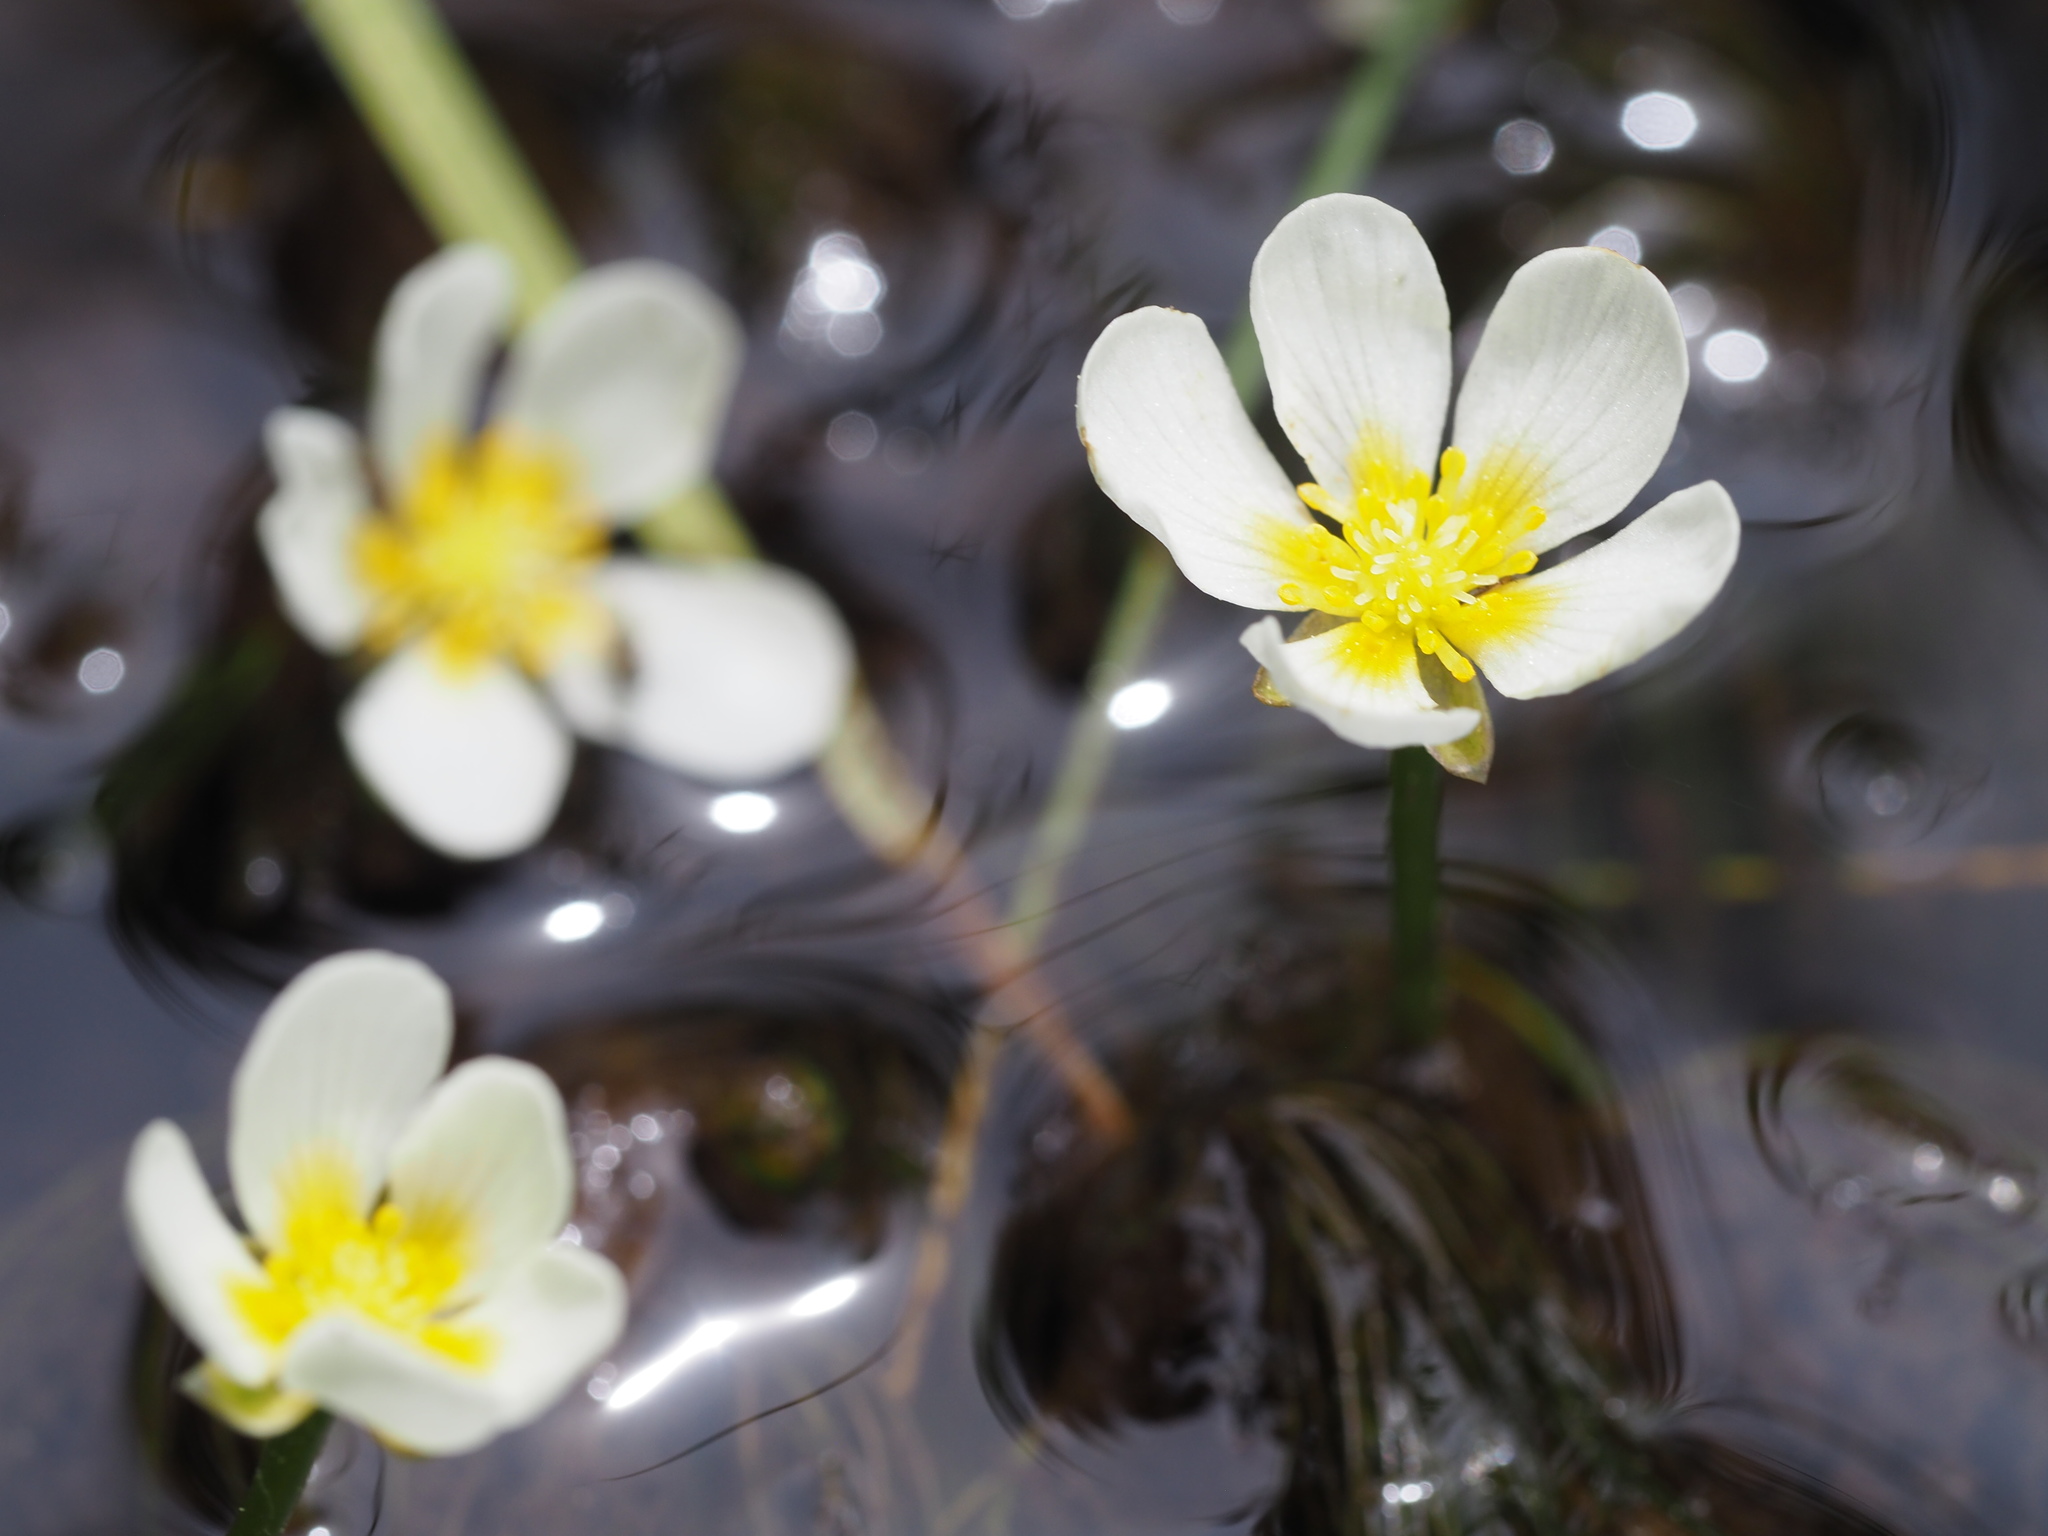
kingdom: Plantae
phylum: Tracheophyta
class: Magnoliopsida
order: Ranunculales
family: Ranunculaceae
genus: Ranunculus
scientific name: Ranunculus aquatilis
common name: Common water-crowfoot
